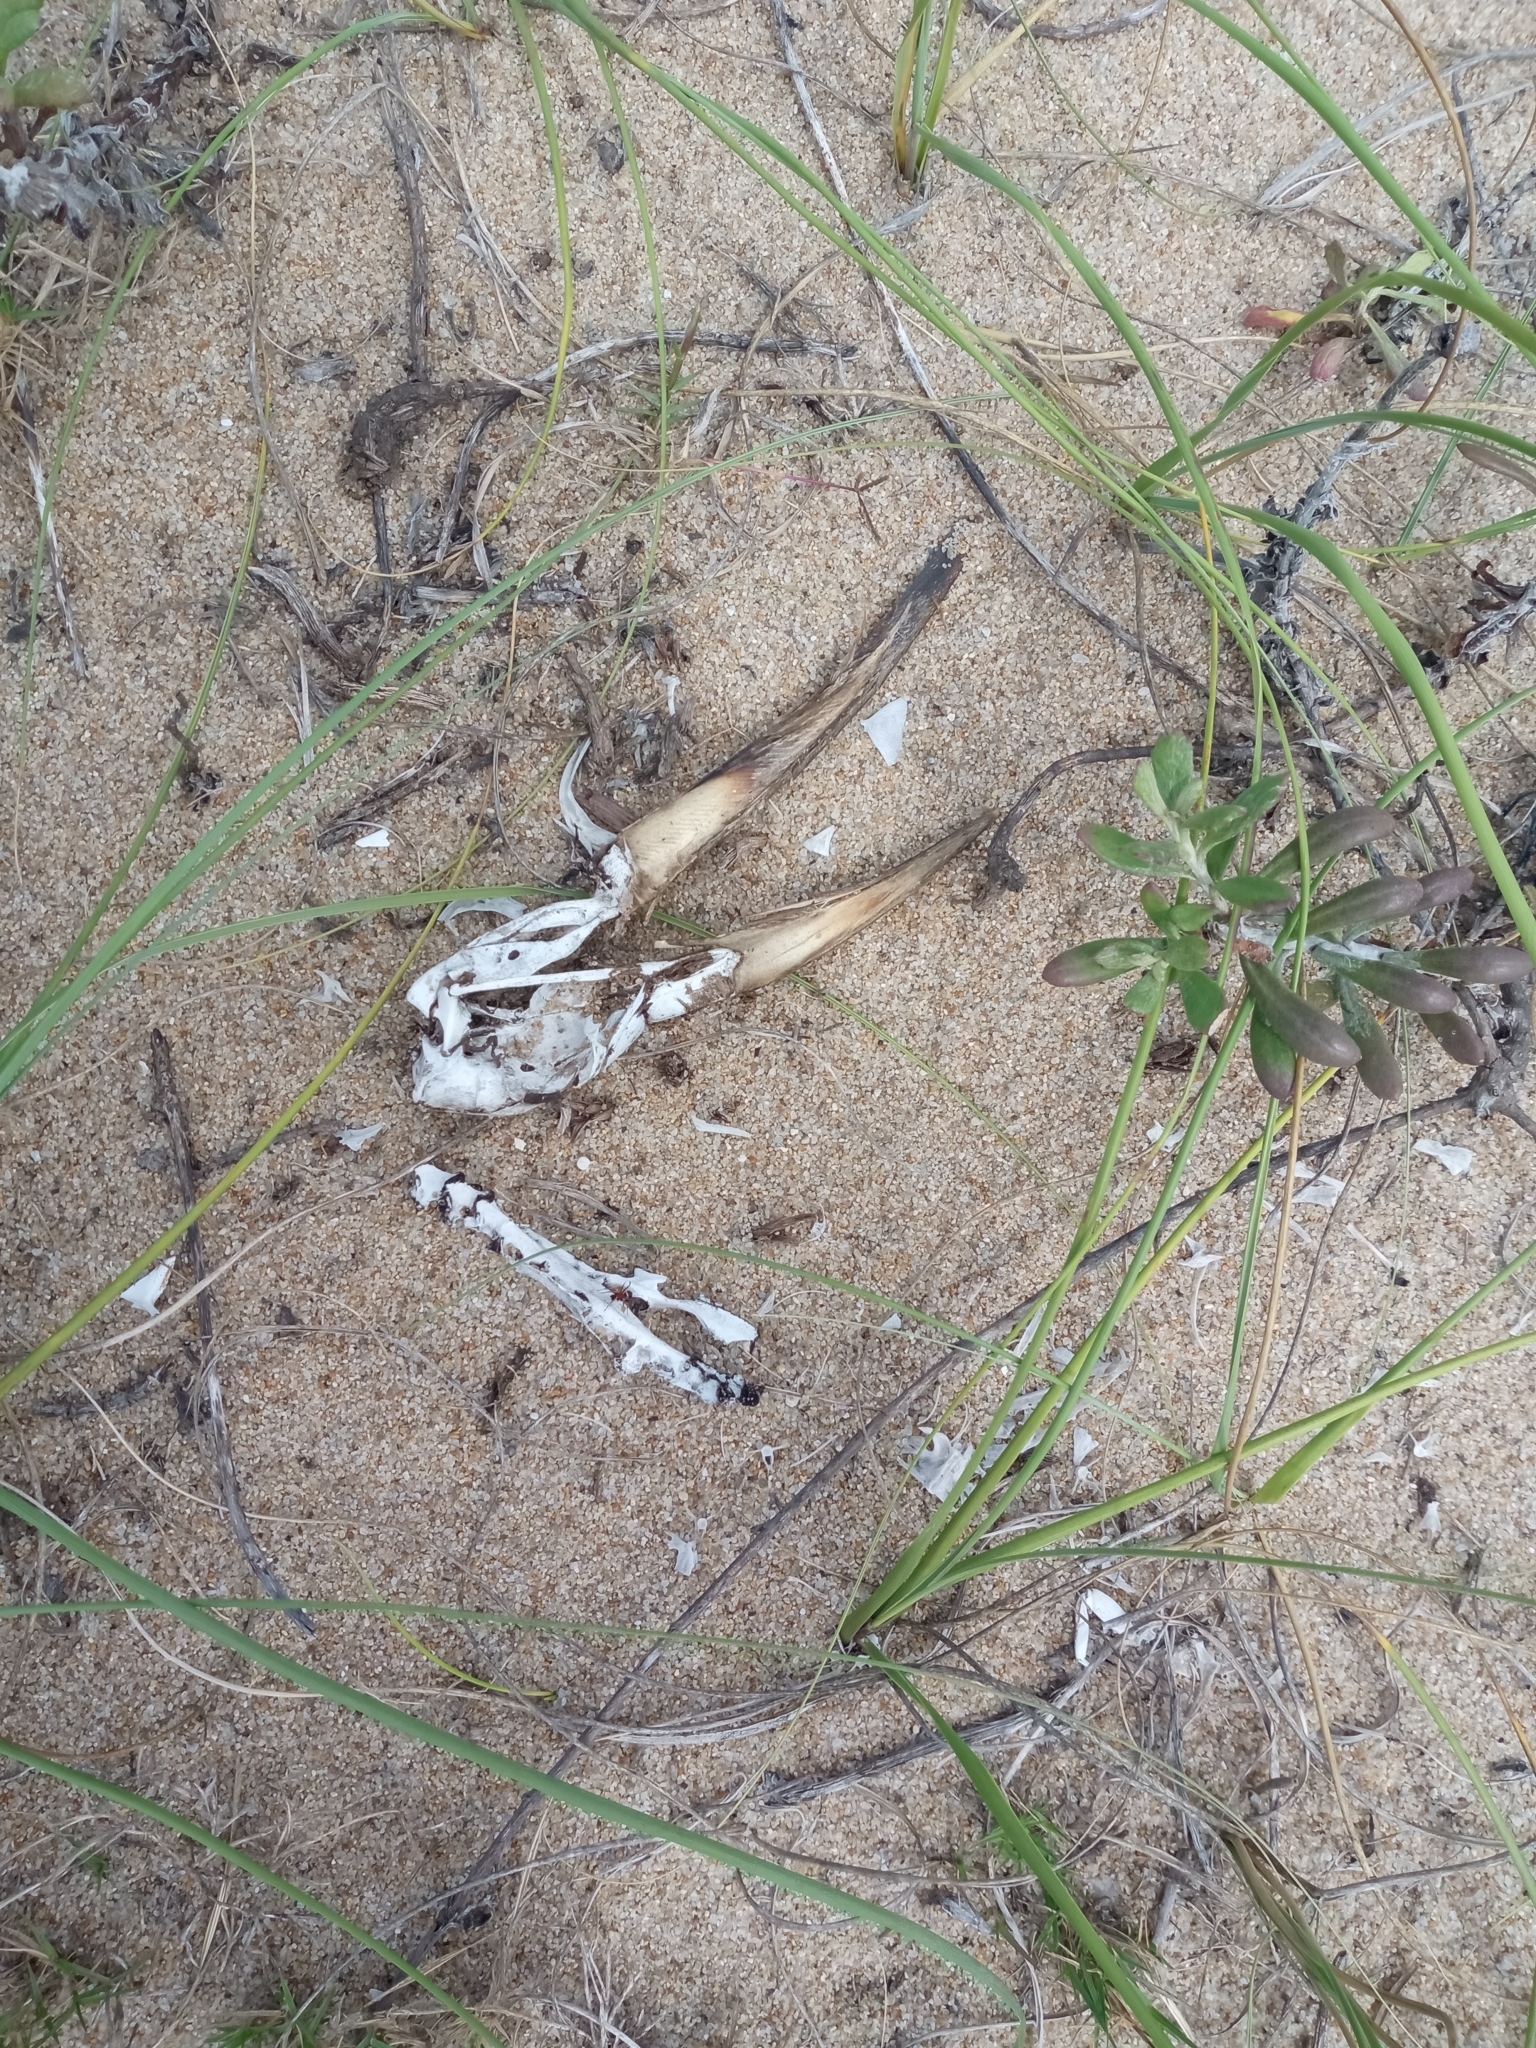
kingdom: Animalia
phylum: Chordata
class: Aves
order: Charadriiformes
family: Laridae
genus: Rynchops
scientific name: Rynchops niger
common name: Black skimmer
